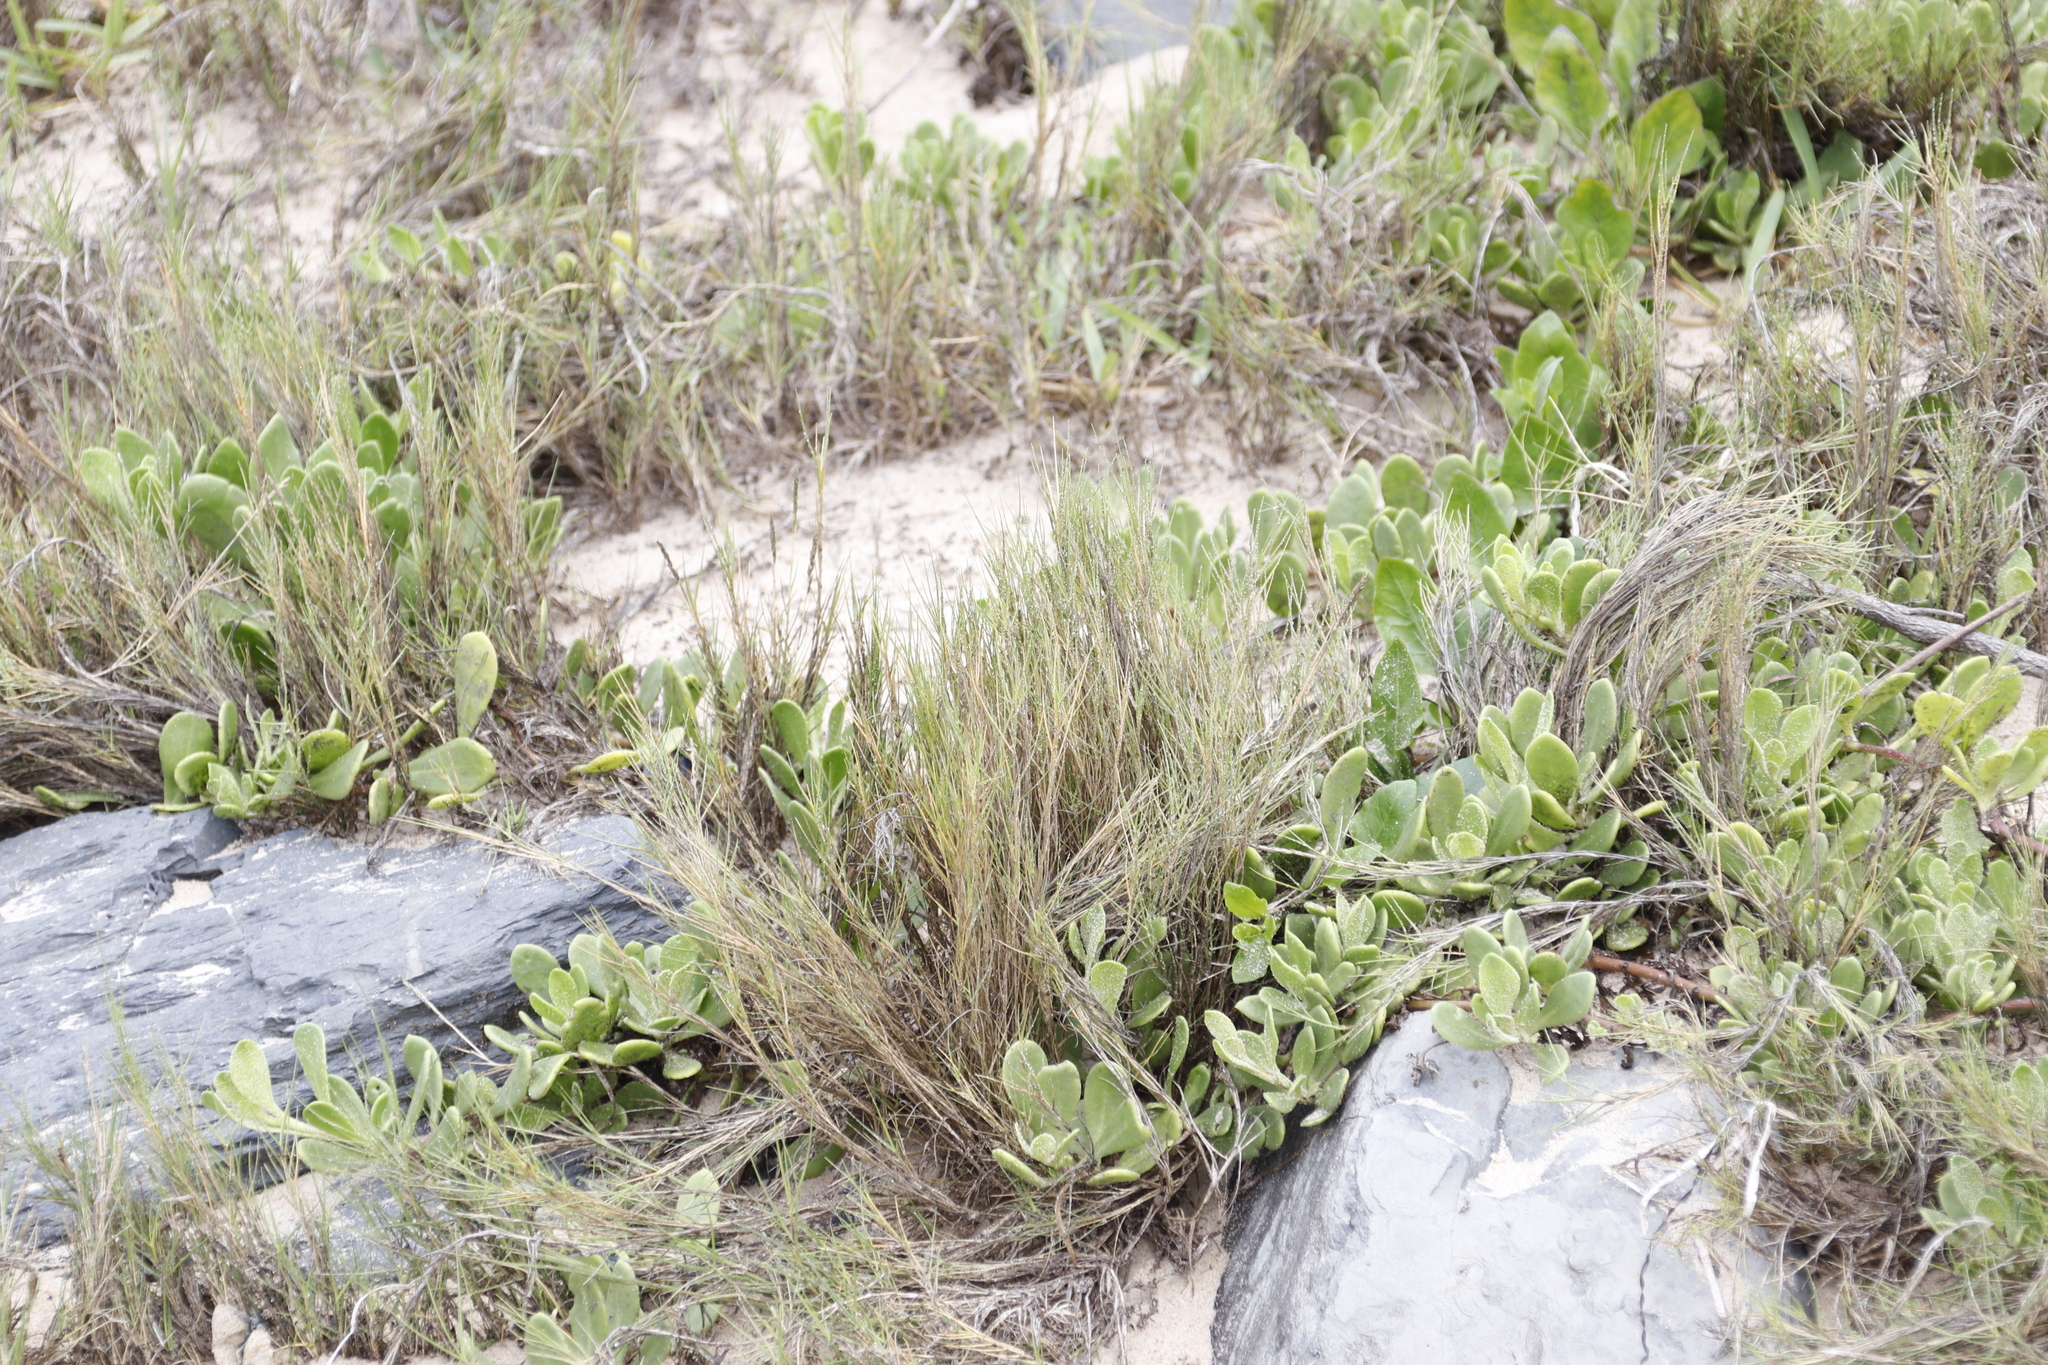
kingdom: Plantae
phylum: Tracheophyta
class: Magnoliopsida
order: Asterales
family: Asteraceae
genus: Dimorphotheca
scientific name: Dimorphotheca fruticosa
